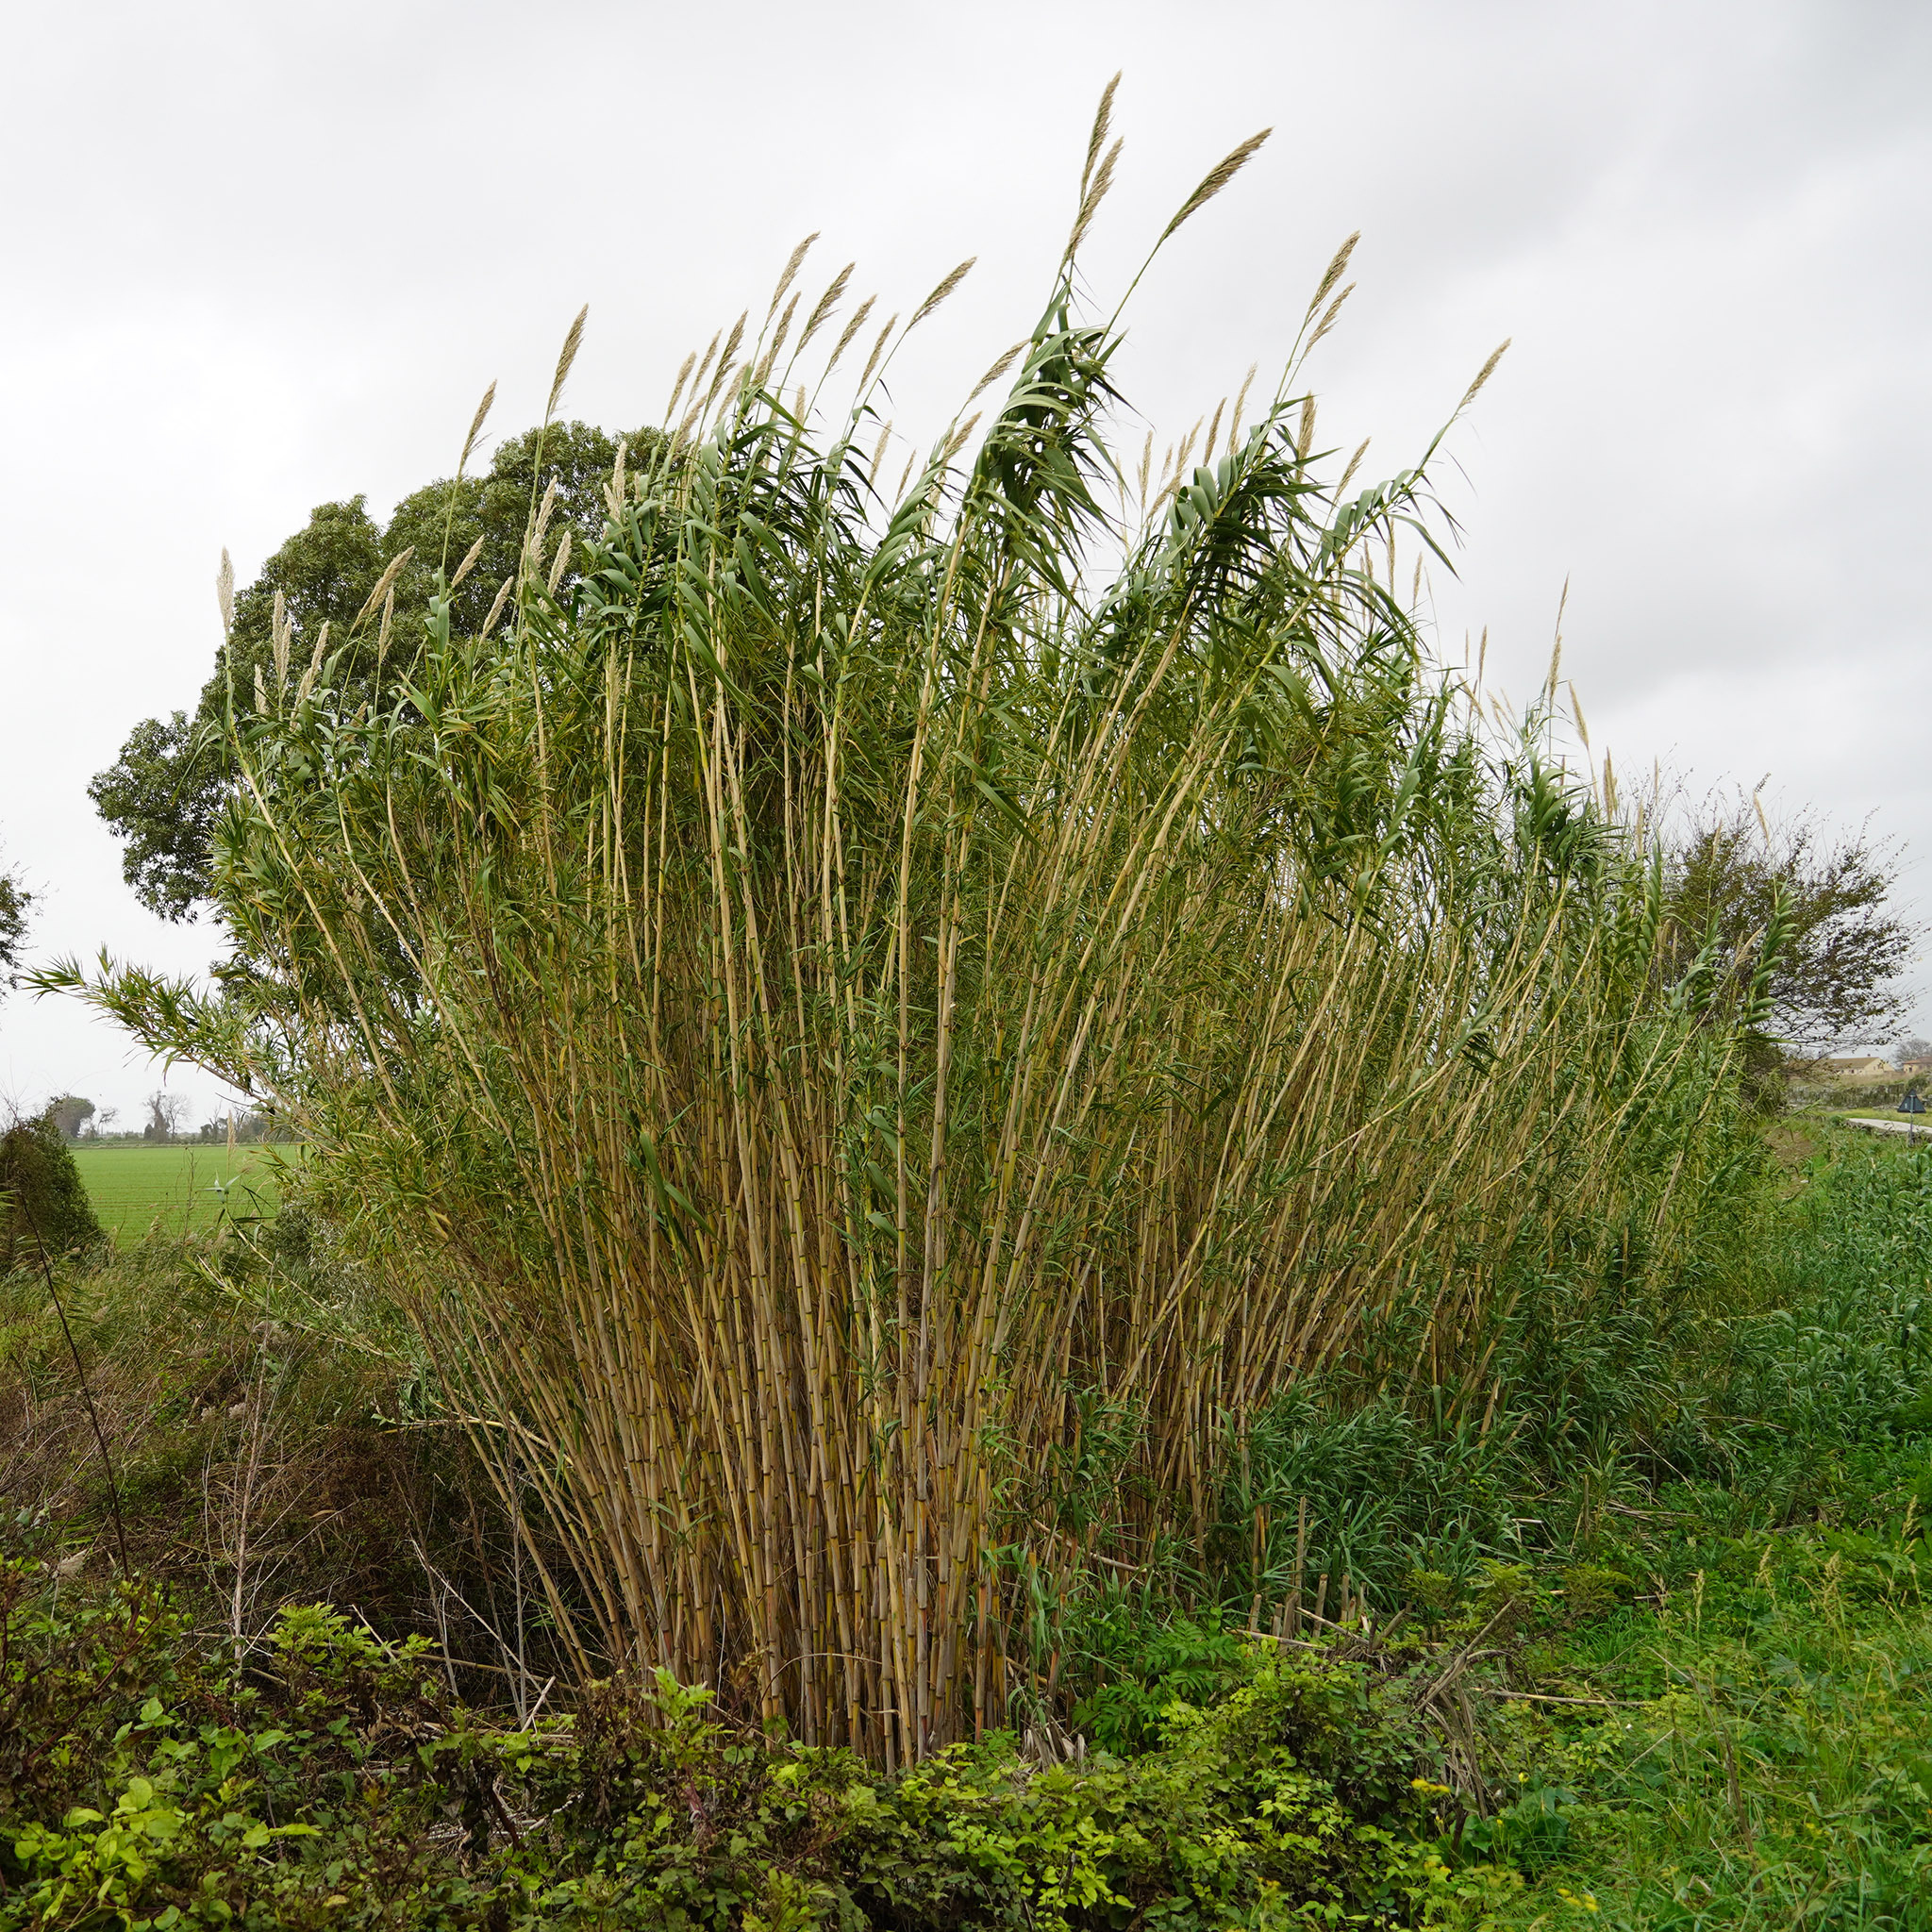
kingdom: Plantae
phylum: Tracheophyta
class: Liliopsida
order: Poales
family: Poaceae
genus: Arundo
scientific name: Arundo donax
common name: Giant reed
